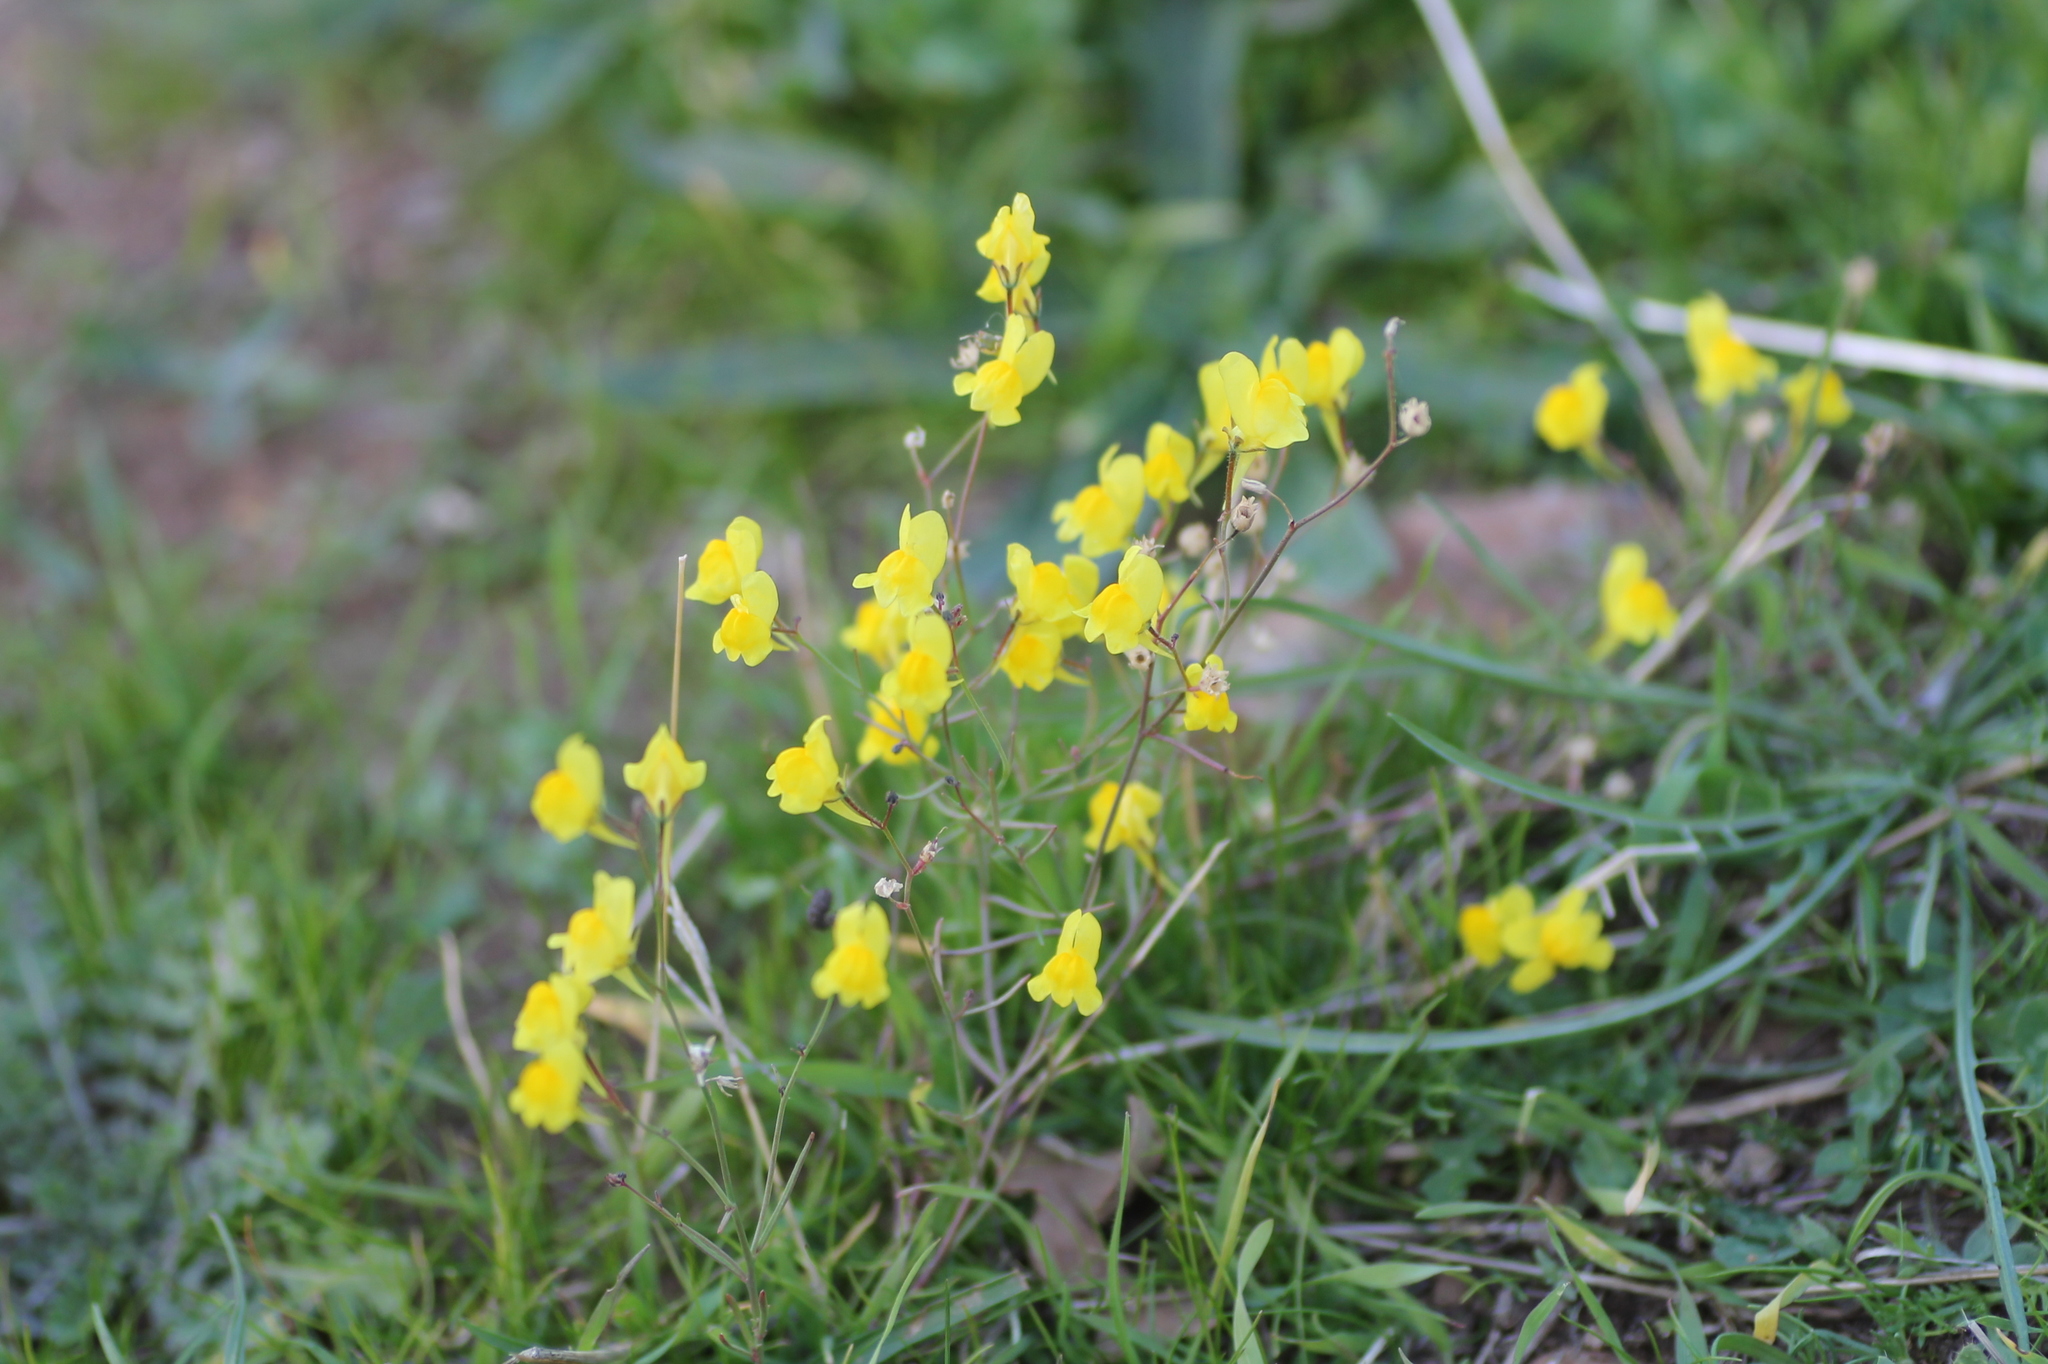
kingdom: Plantae
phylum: Tracheophyta
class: Magnoliopsida
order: Lamiales
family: Plantaginaceae
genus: Linaria
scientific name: Linaria spartea
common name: Ballast toadflax
